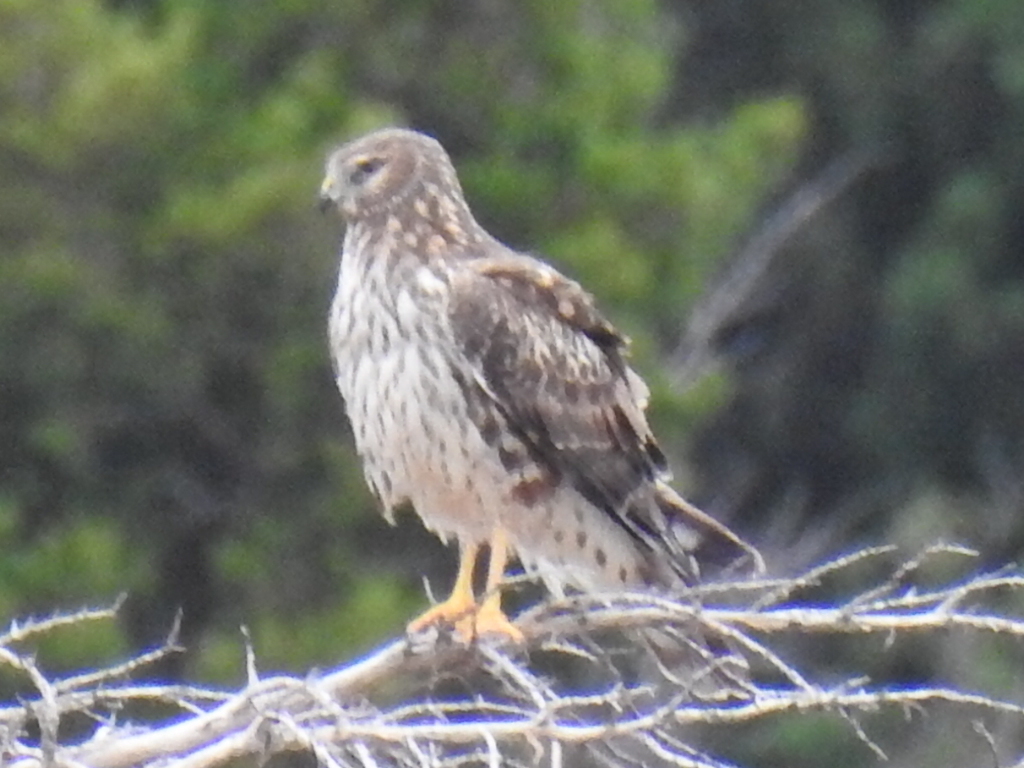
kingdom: Animalia
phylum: Chordata
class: Aves
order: Accipitriformes
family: Accipitridae
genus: Circus
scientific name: Circus cyaneus
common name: Hen harrier
